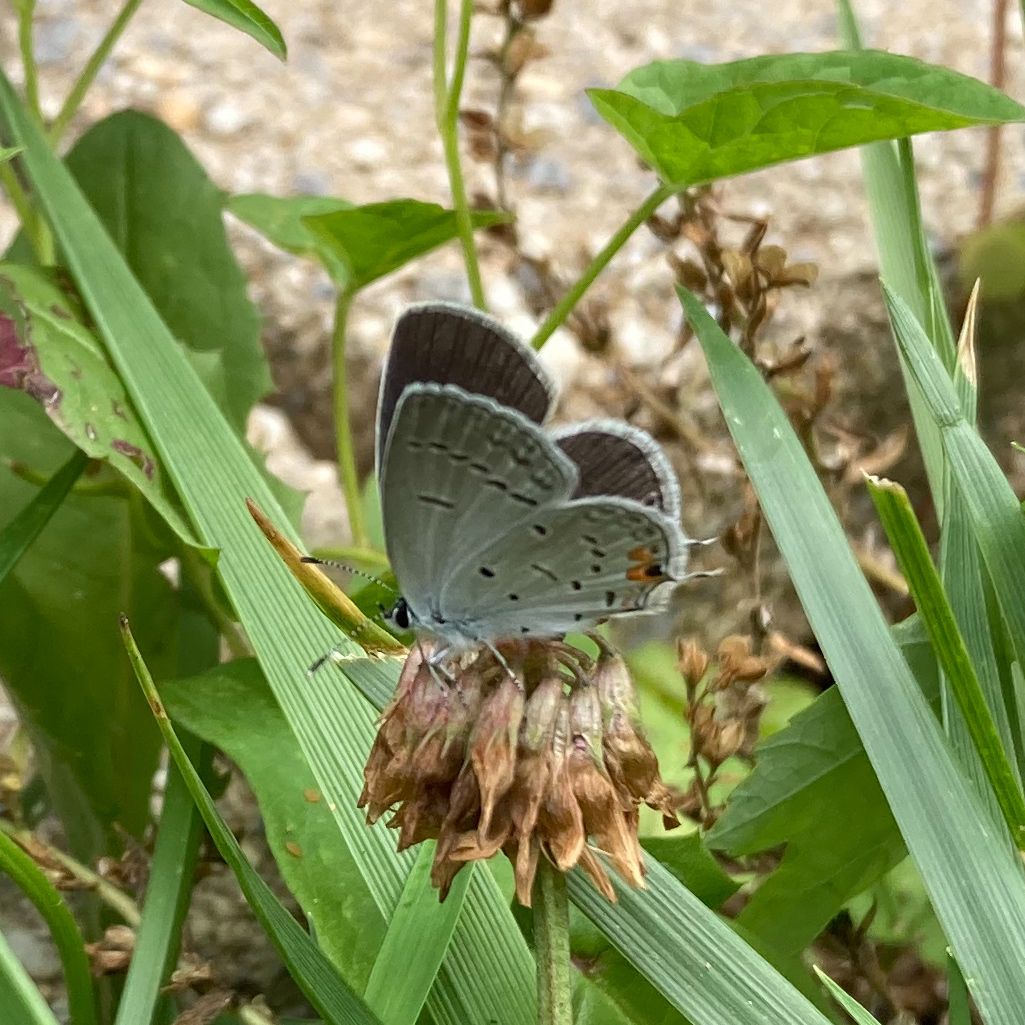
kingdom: Animalia
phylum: Arthropoda
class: Insecta
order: Lepidoptera
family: Lycaenidae
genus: Elkalyce
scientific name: Elkalyce comyntas
